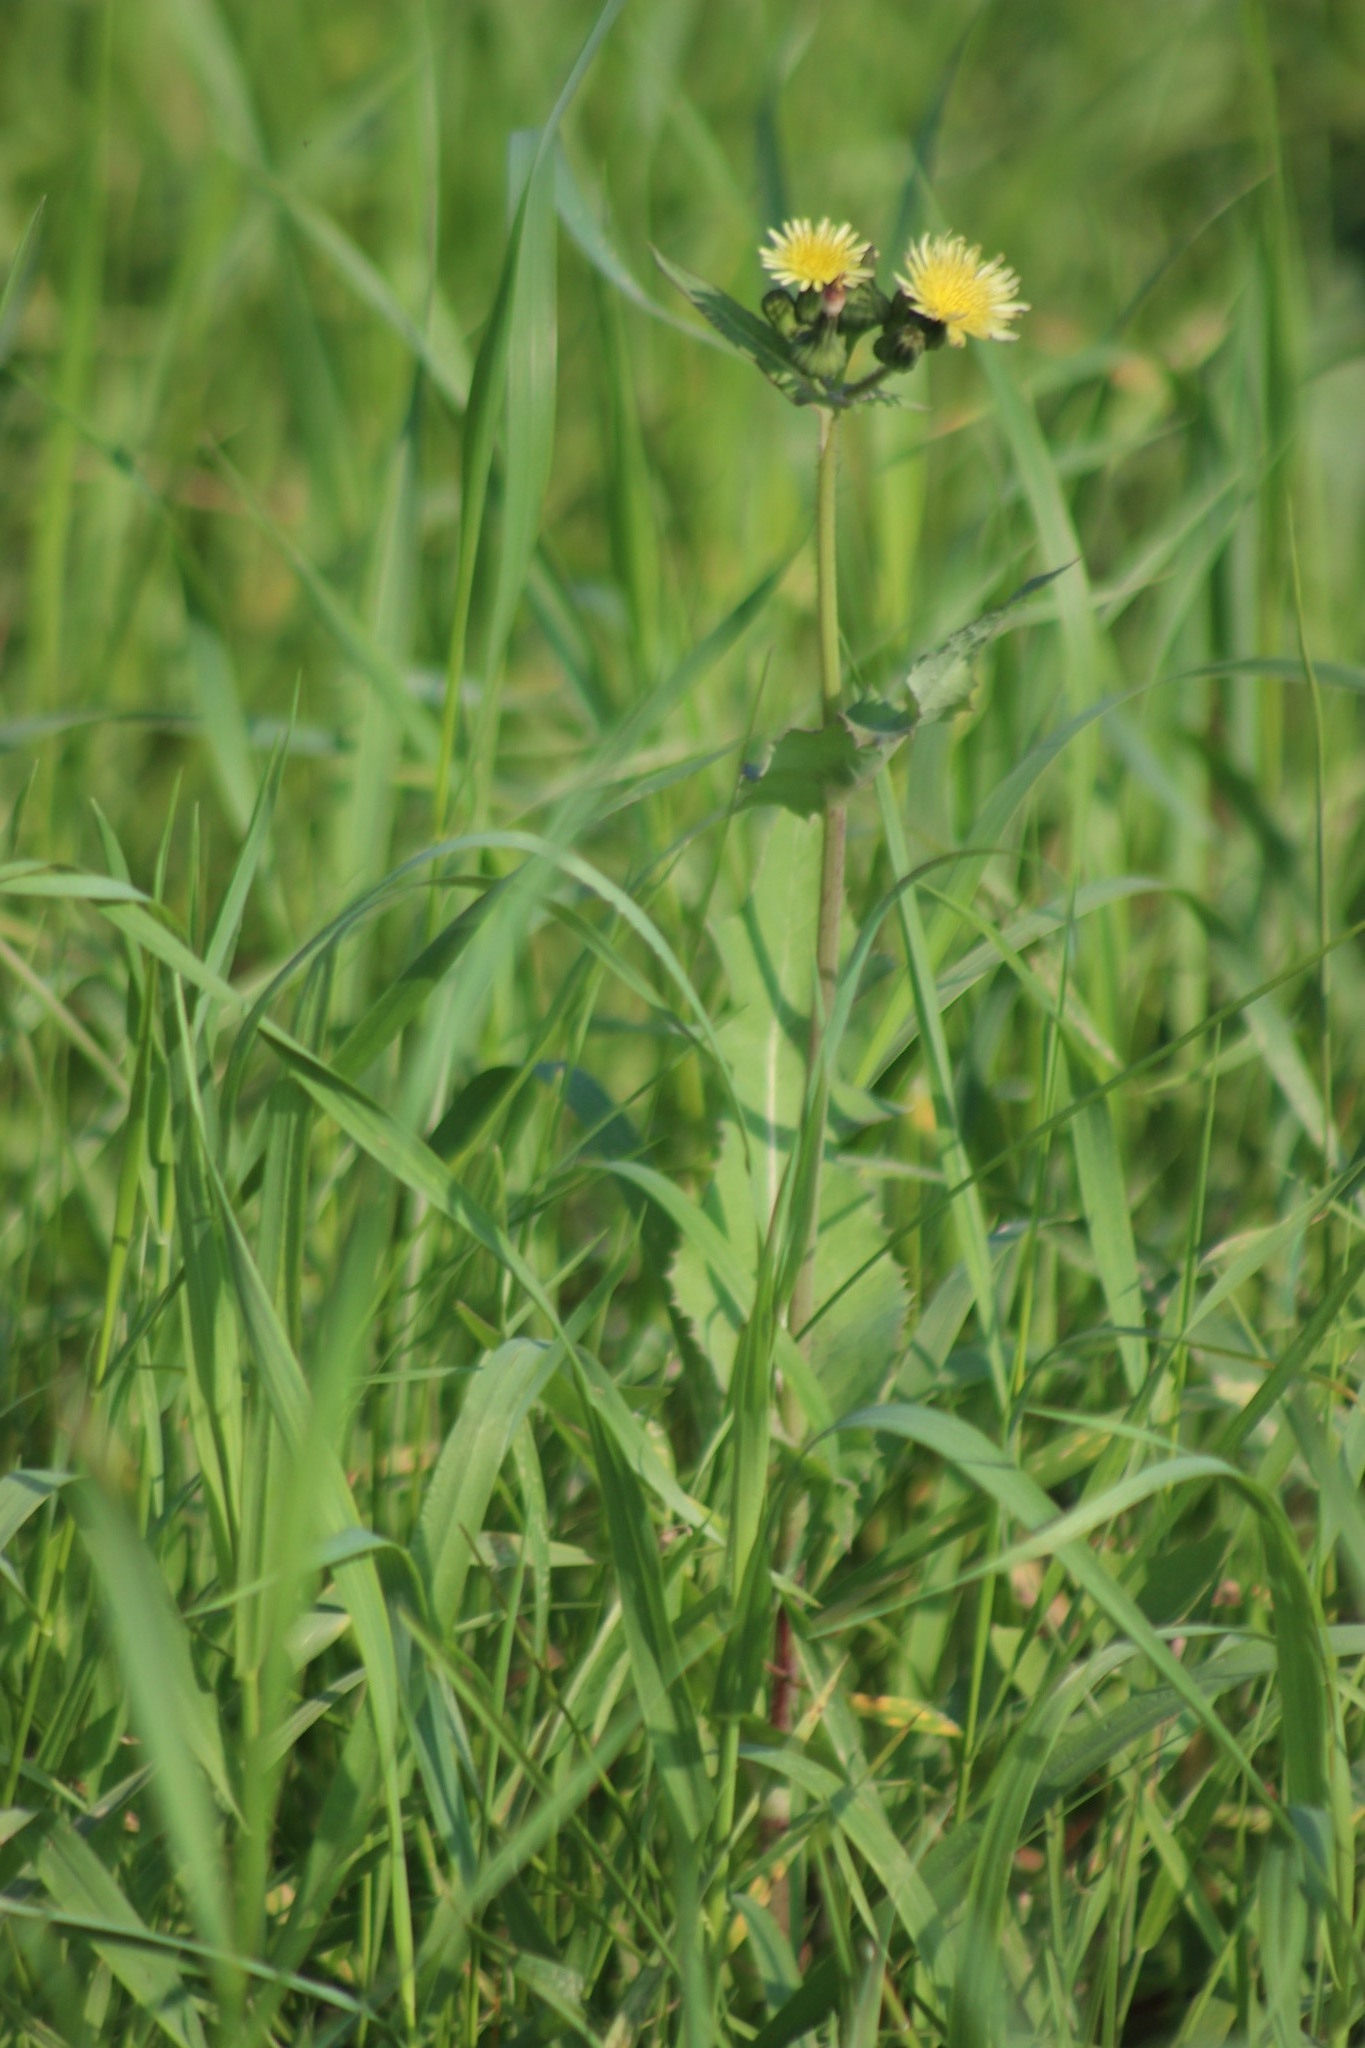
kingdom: Plantae
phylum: Tracheophyta
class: Magnoliopsida
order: Asterales
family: Asteraceae
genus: Sonchus
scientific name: Sonchus oleraceus
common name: Common sowthistle
